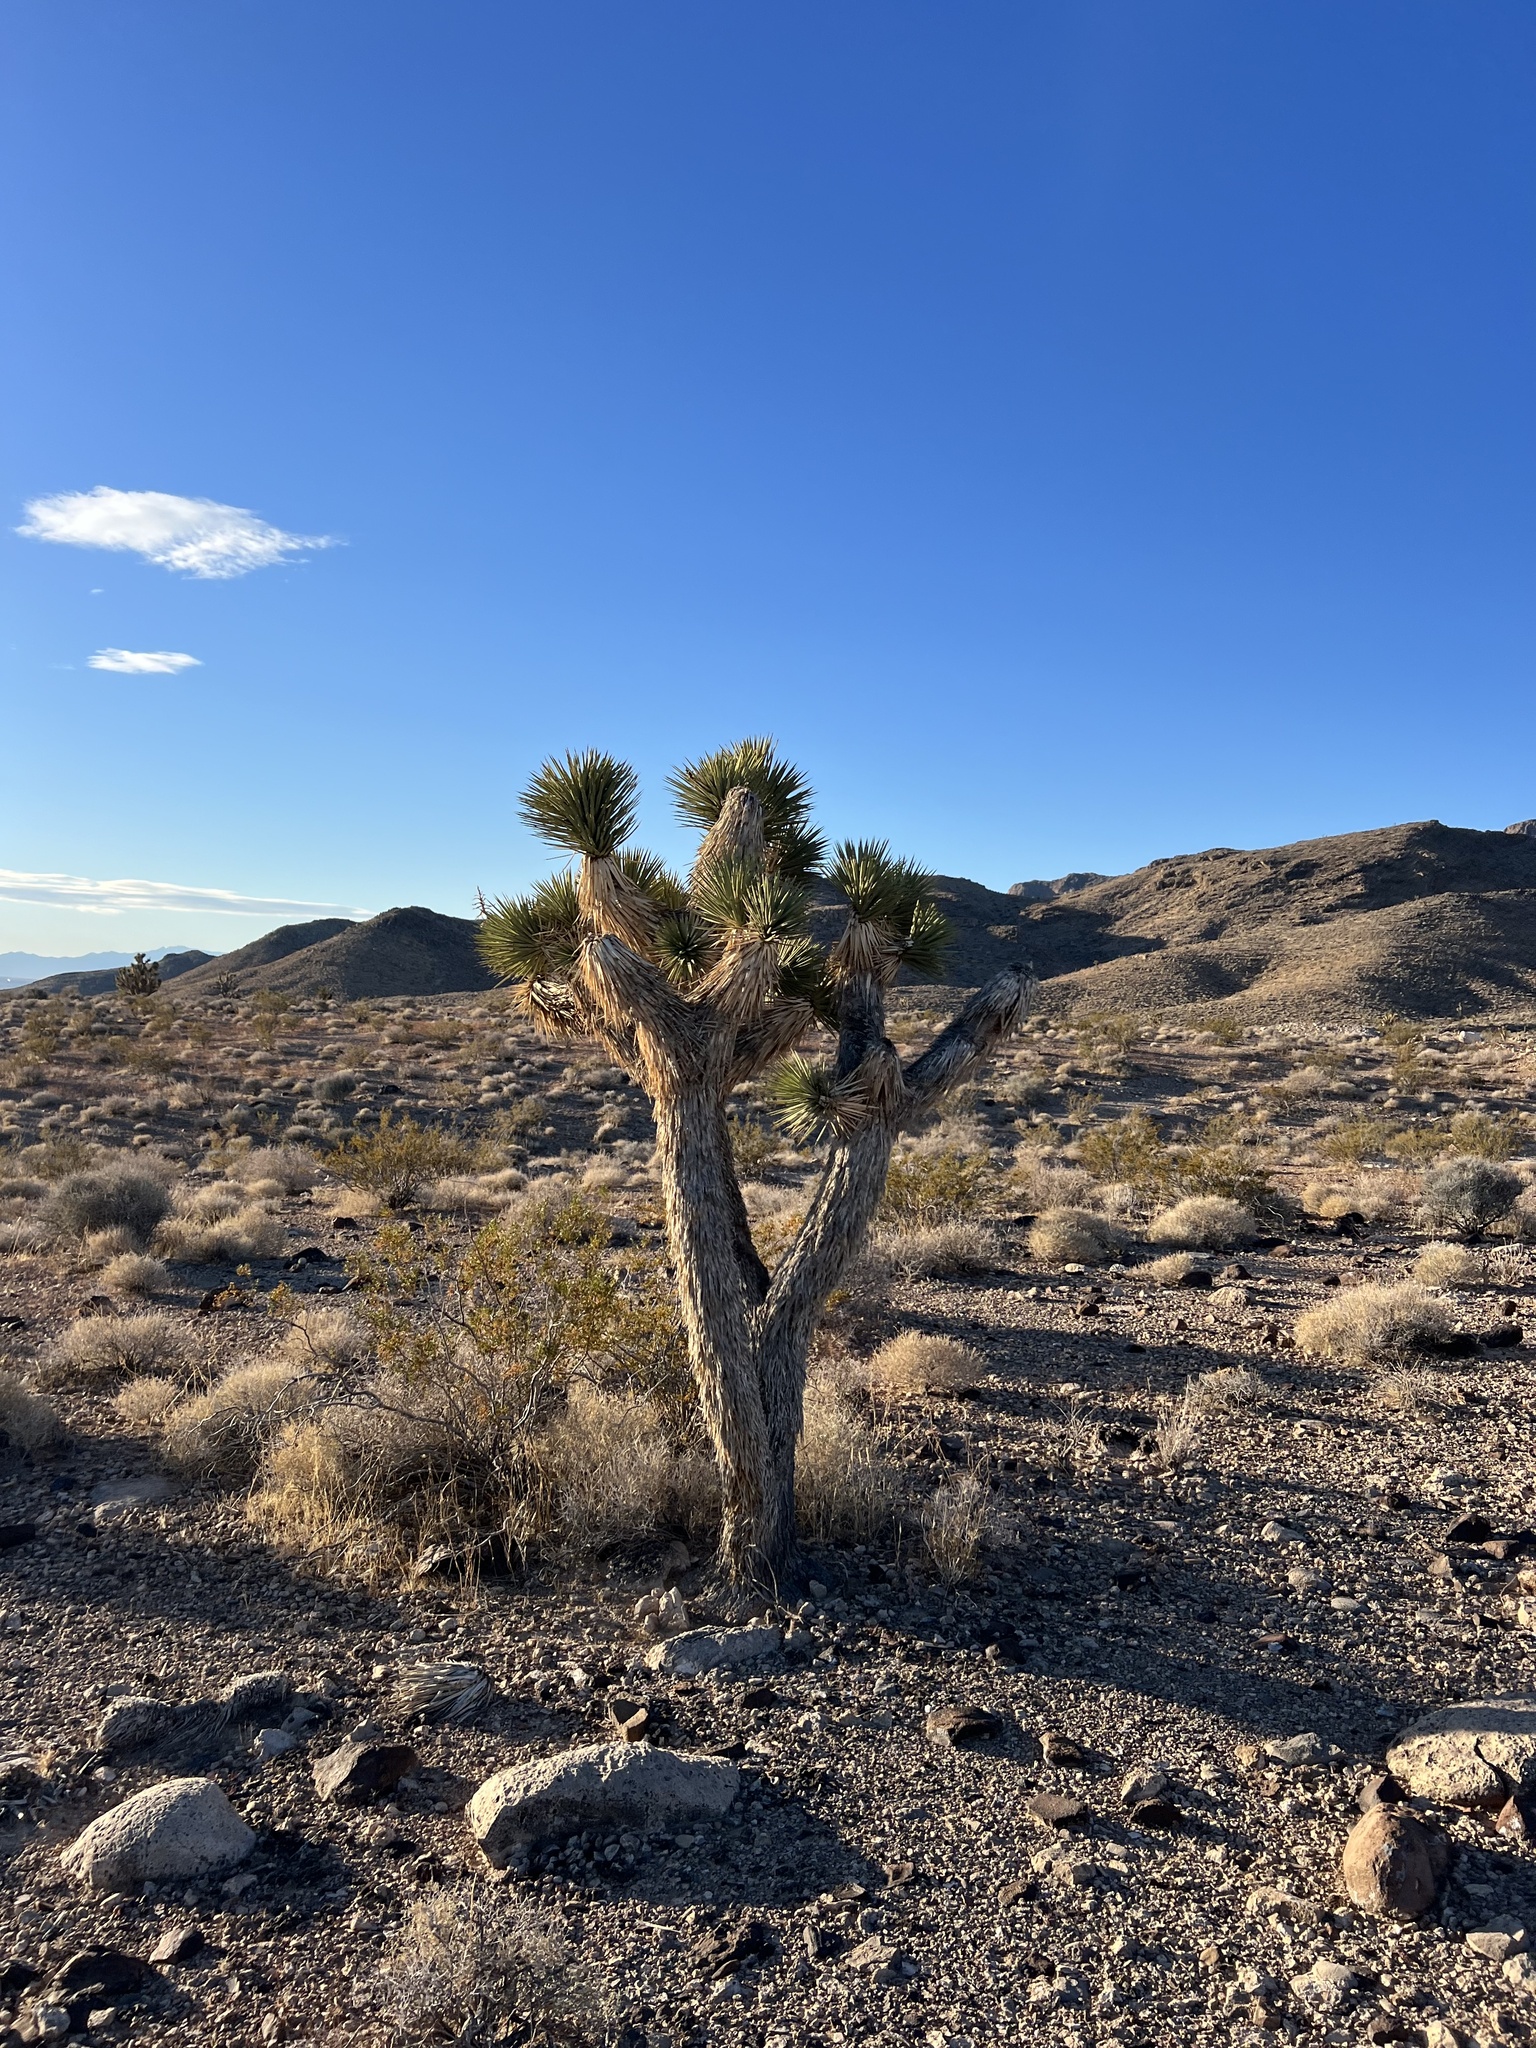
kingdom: Plantae
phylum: Tracheophyta
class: Liliopsida
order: Asparagales
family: Asparagaceae
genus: Yucca
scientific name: Yucca brevifolia
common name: Joshua tree
